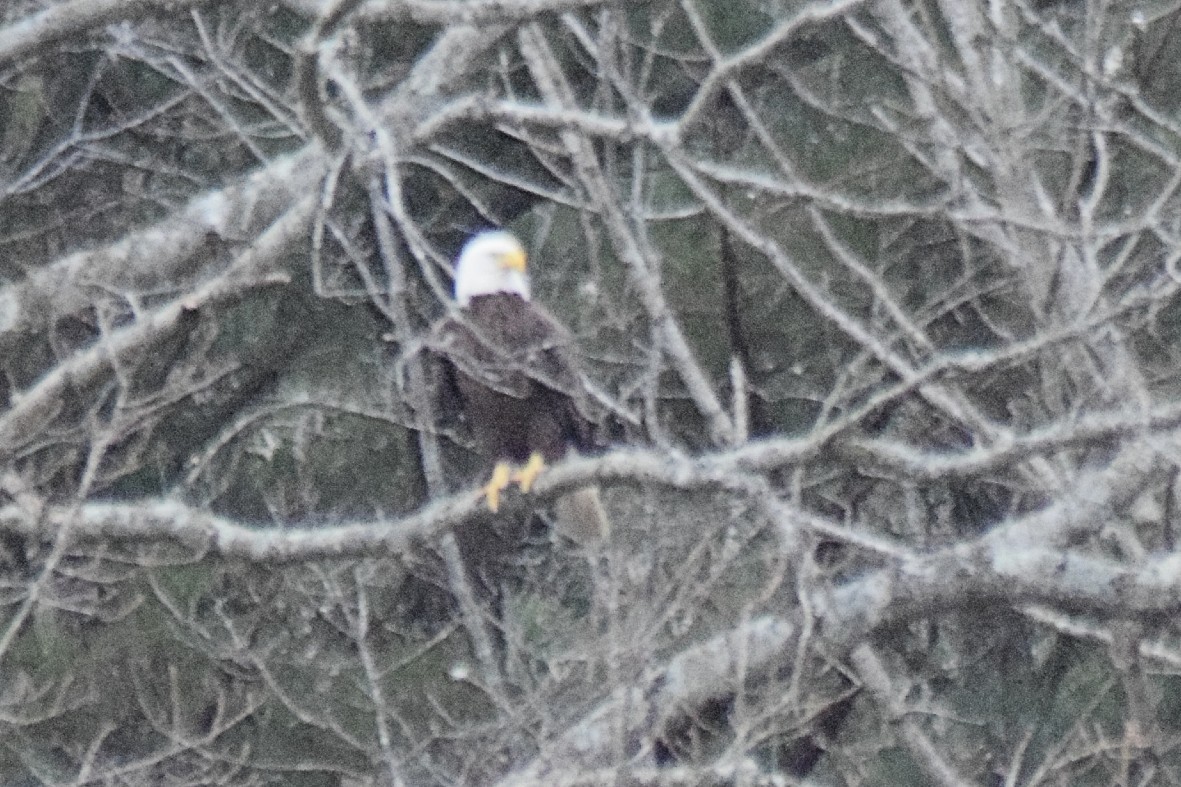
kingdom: Animalia
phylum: Chordata
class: Aves
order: Accipitriformes
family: Accipitridae
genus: Haliaeetus
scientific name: Haliaeetus leucocephalus
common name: Bald eagle
